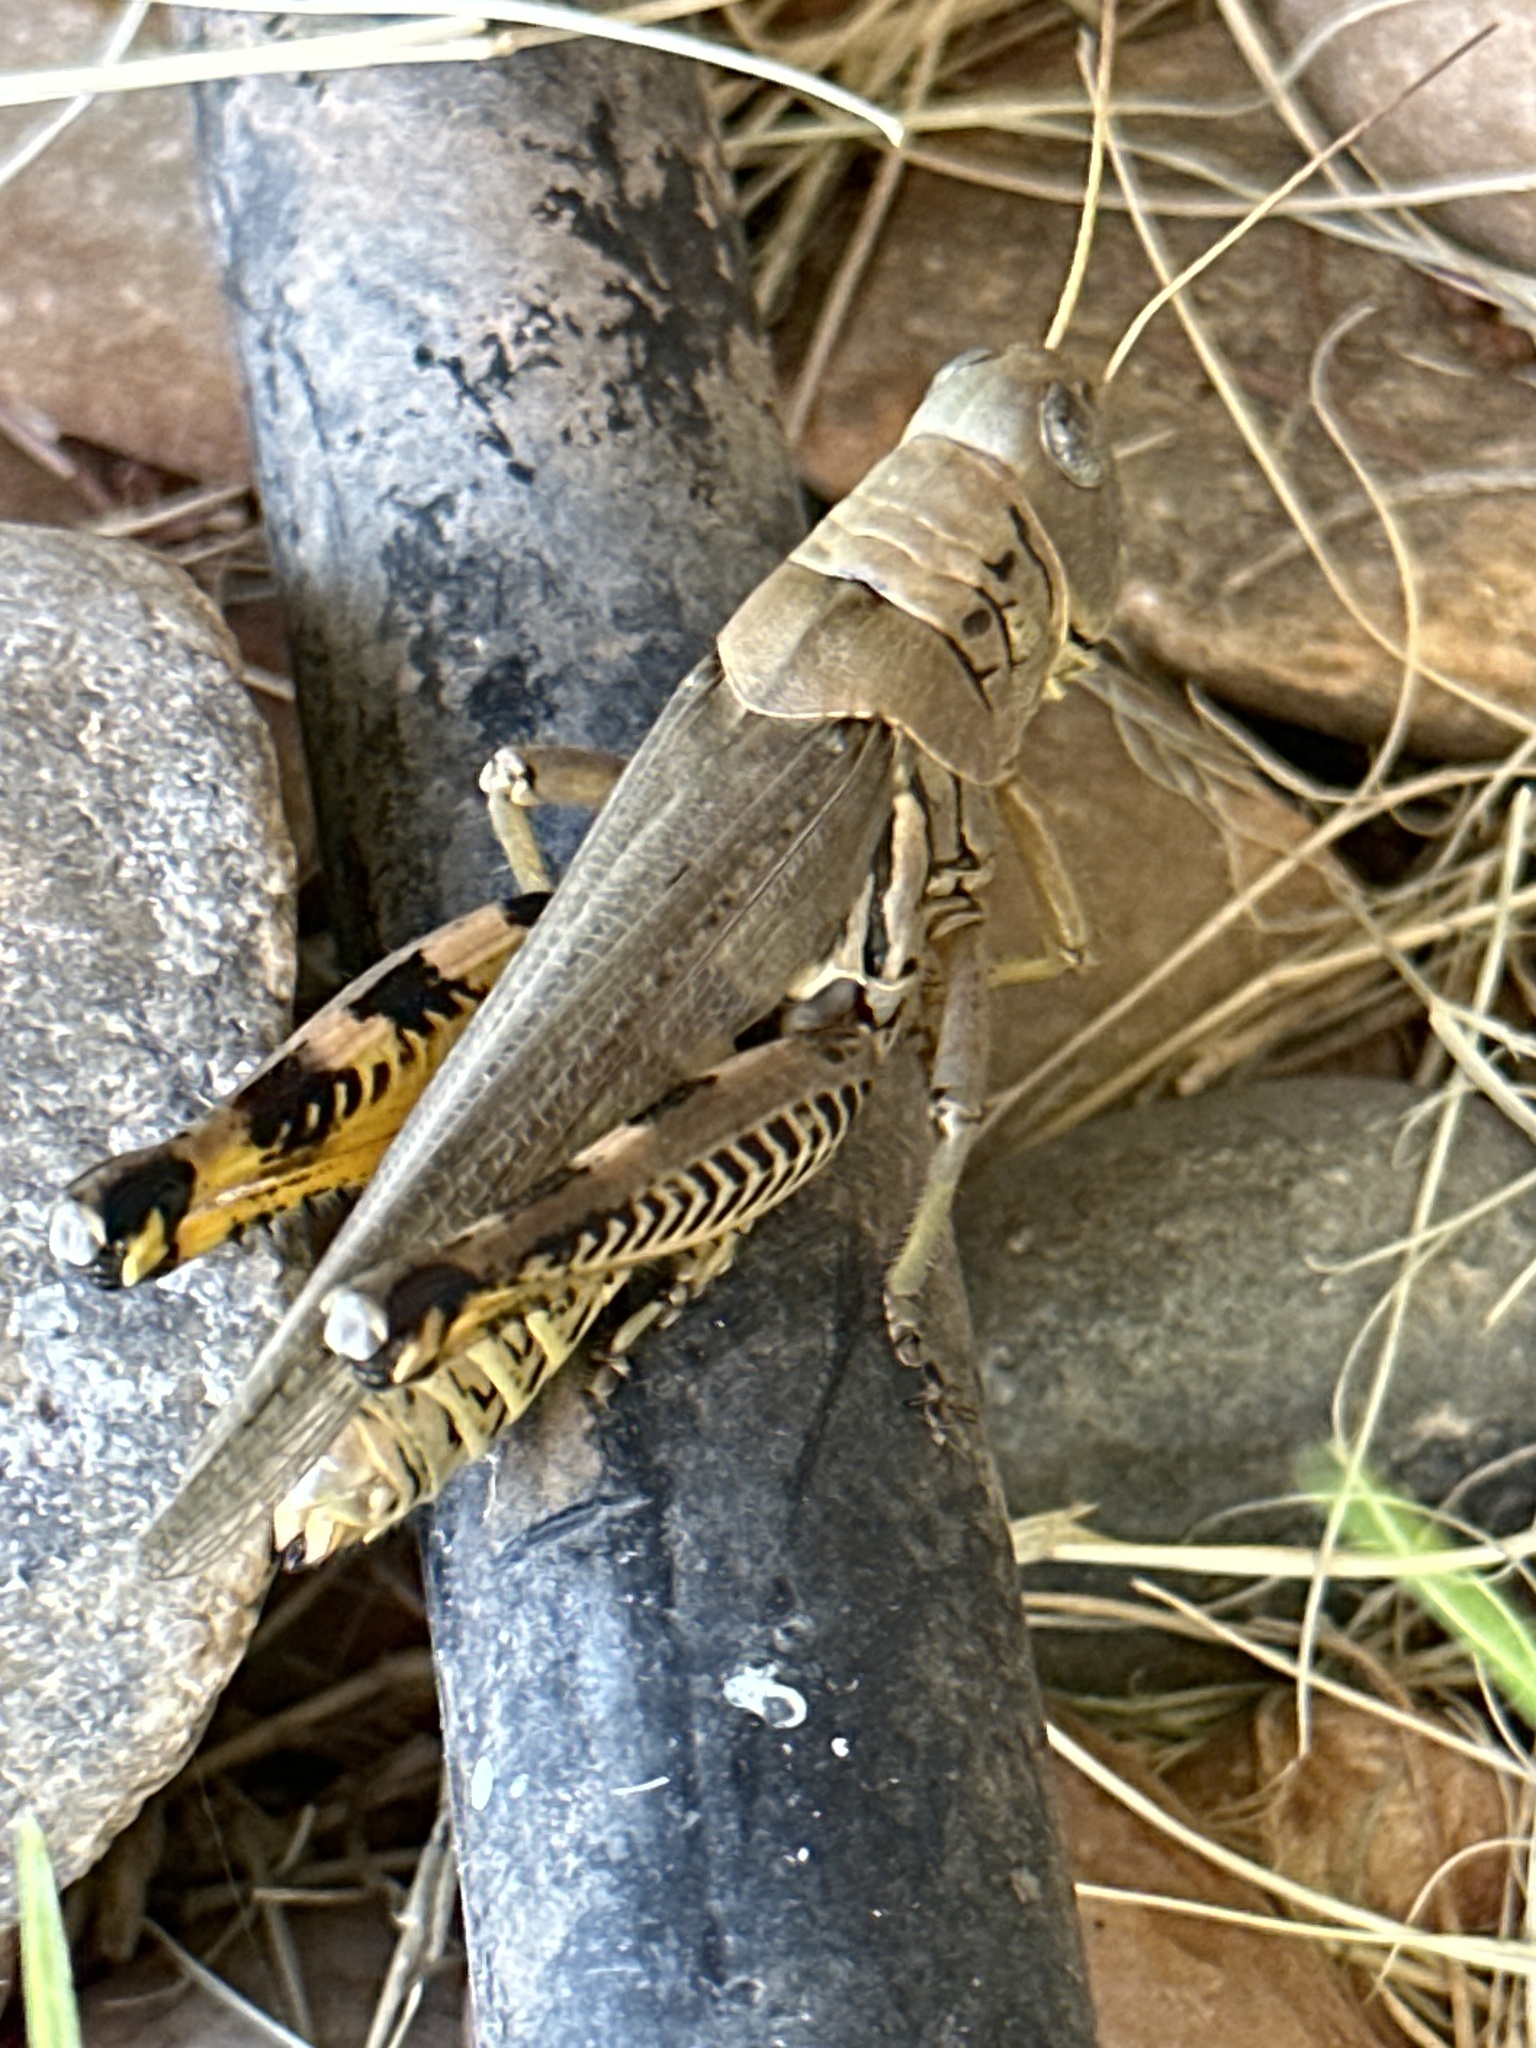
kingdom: Animalia
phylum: Arthropoda
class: Insecta
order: Orthoptera
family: Acrididae
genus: Melanoplus
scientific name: Melanoplus differentialis
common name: Differential grasshopper
